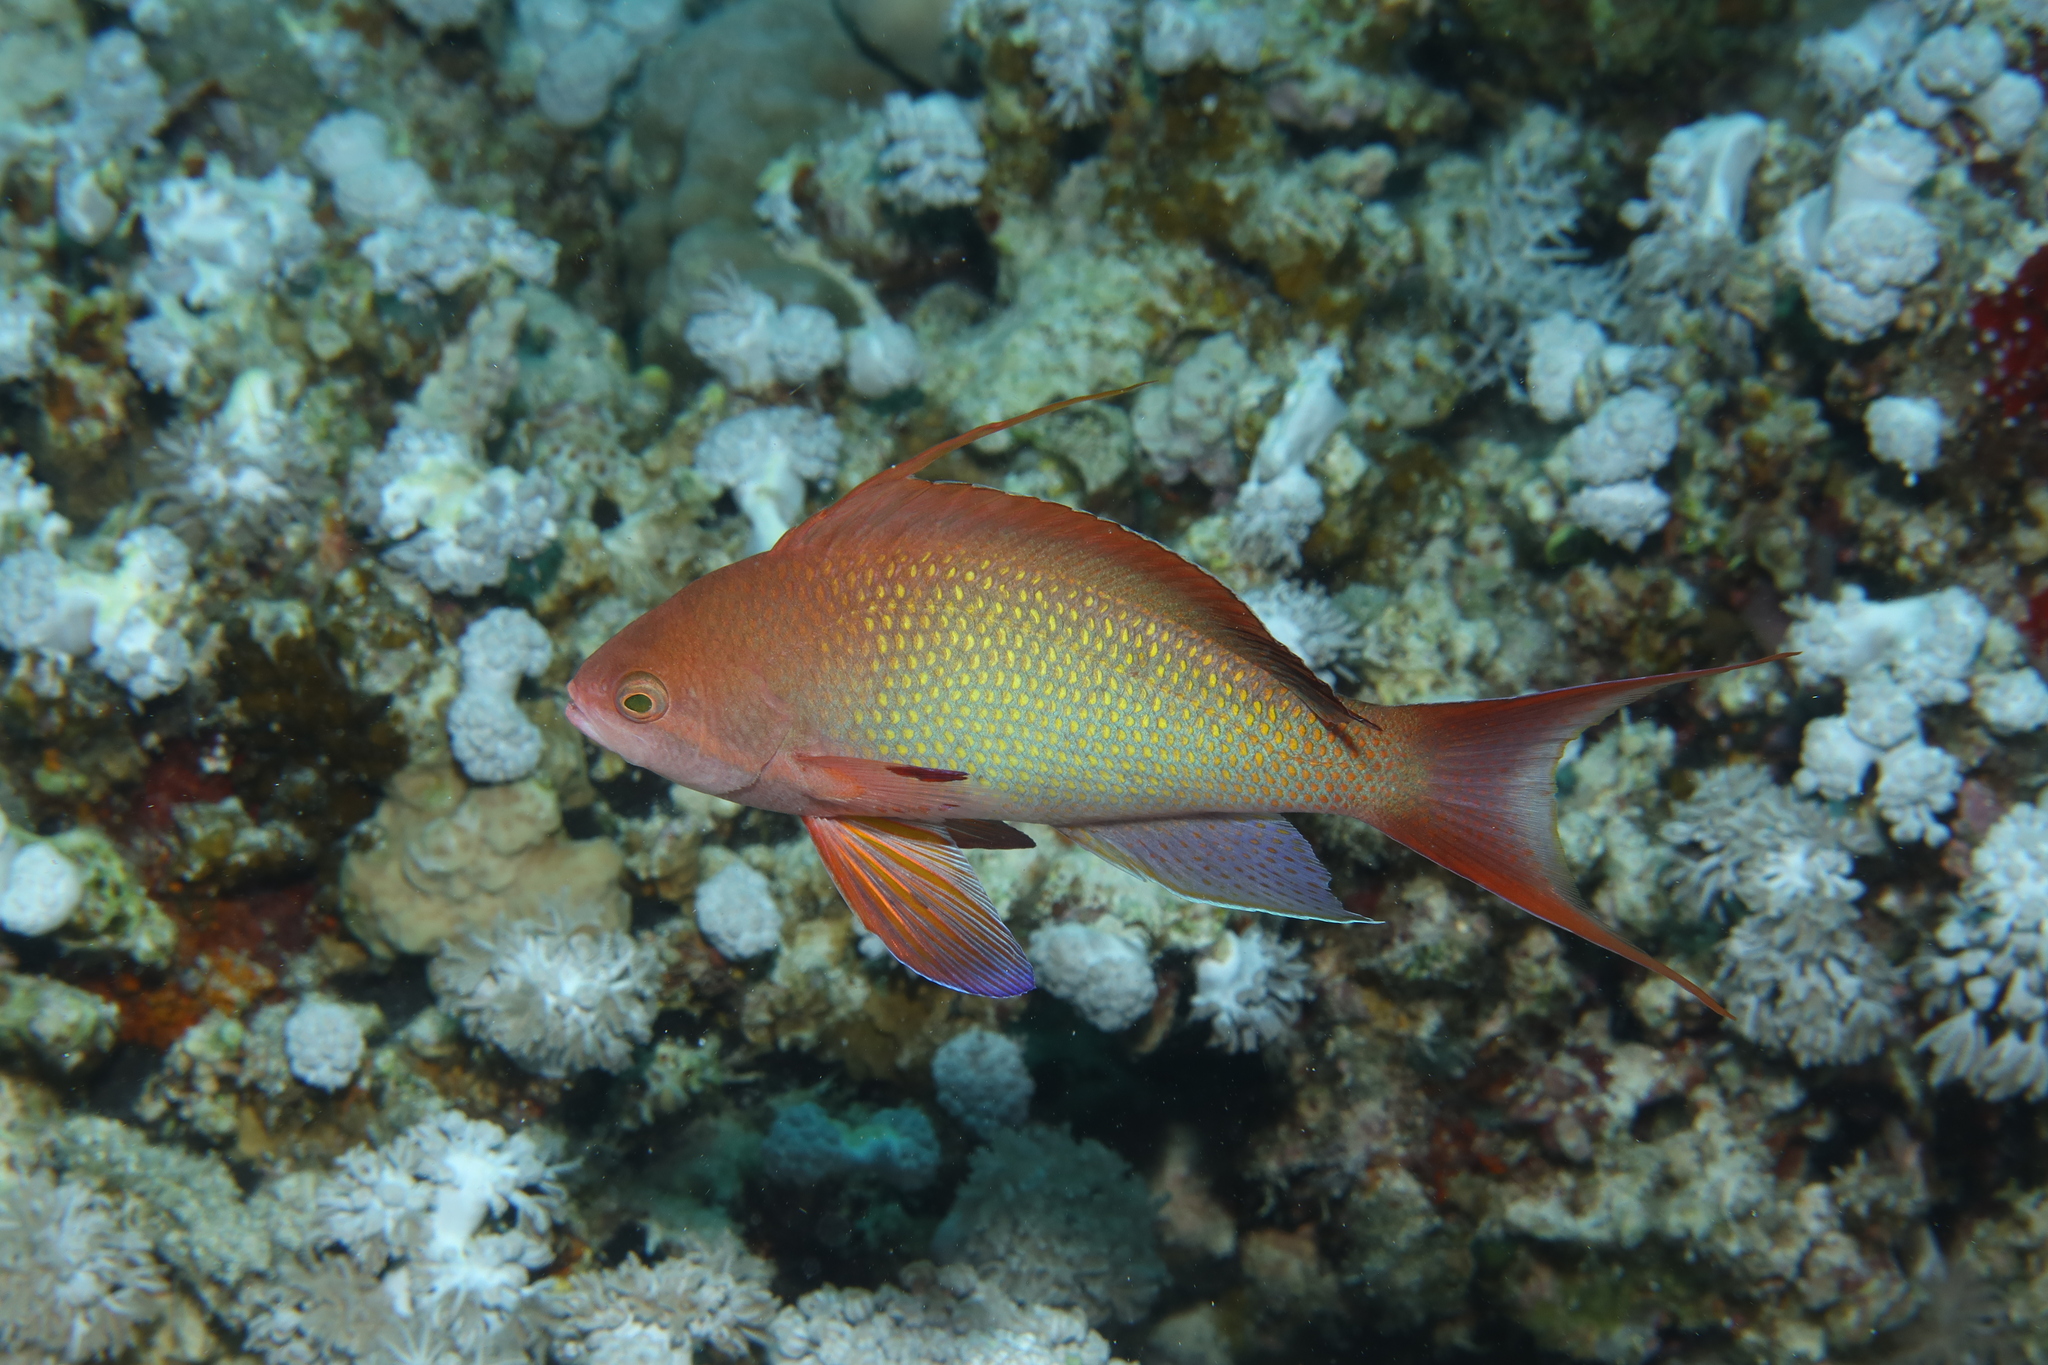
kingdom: Animalia
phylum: Chordata
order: Perciformes
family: Serranidae
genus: Pseudanthias
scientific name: Pseudanthias squamipinnis
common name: Scalefin anthias
